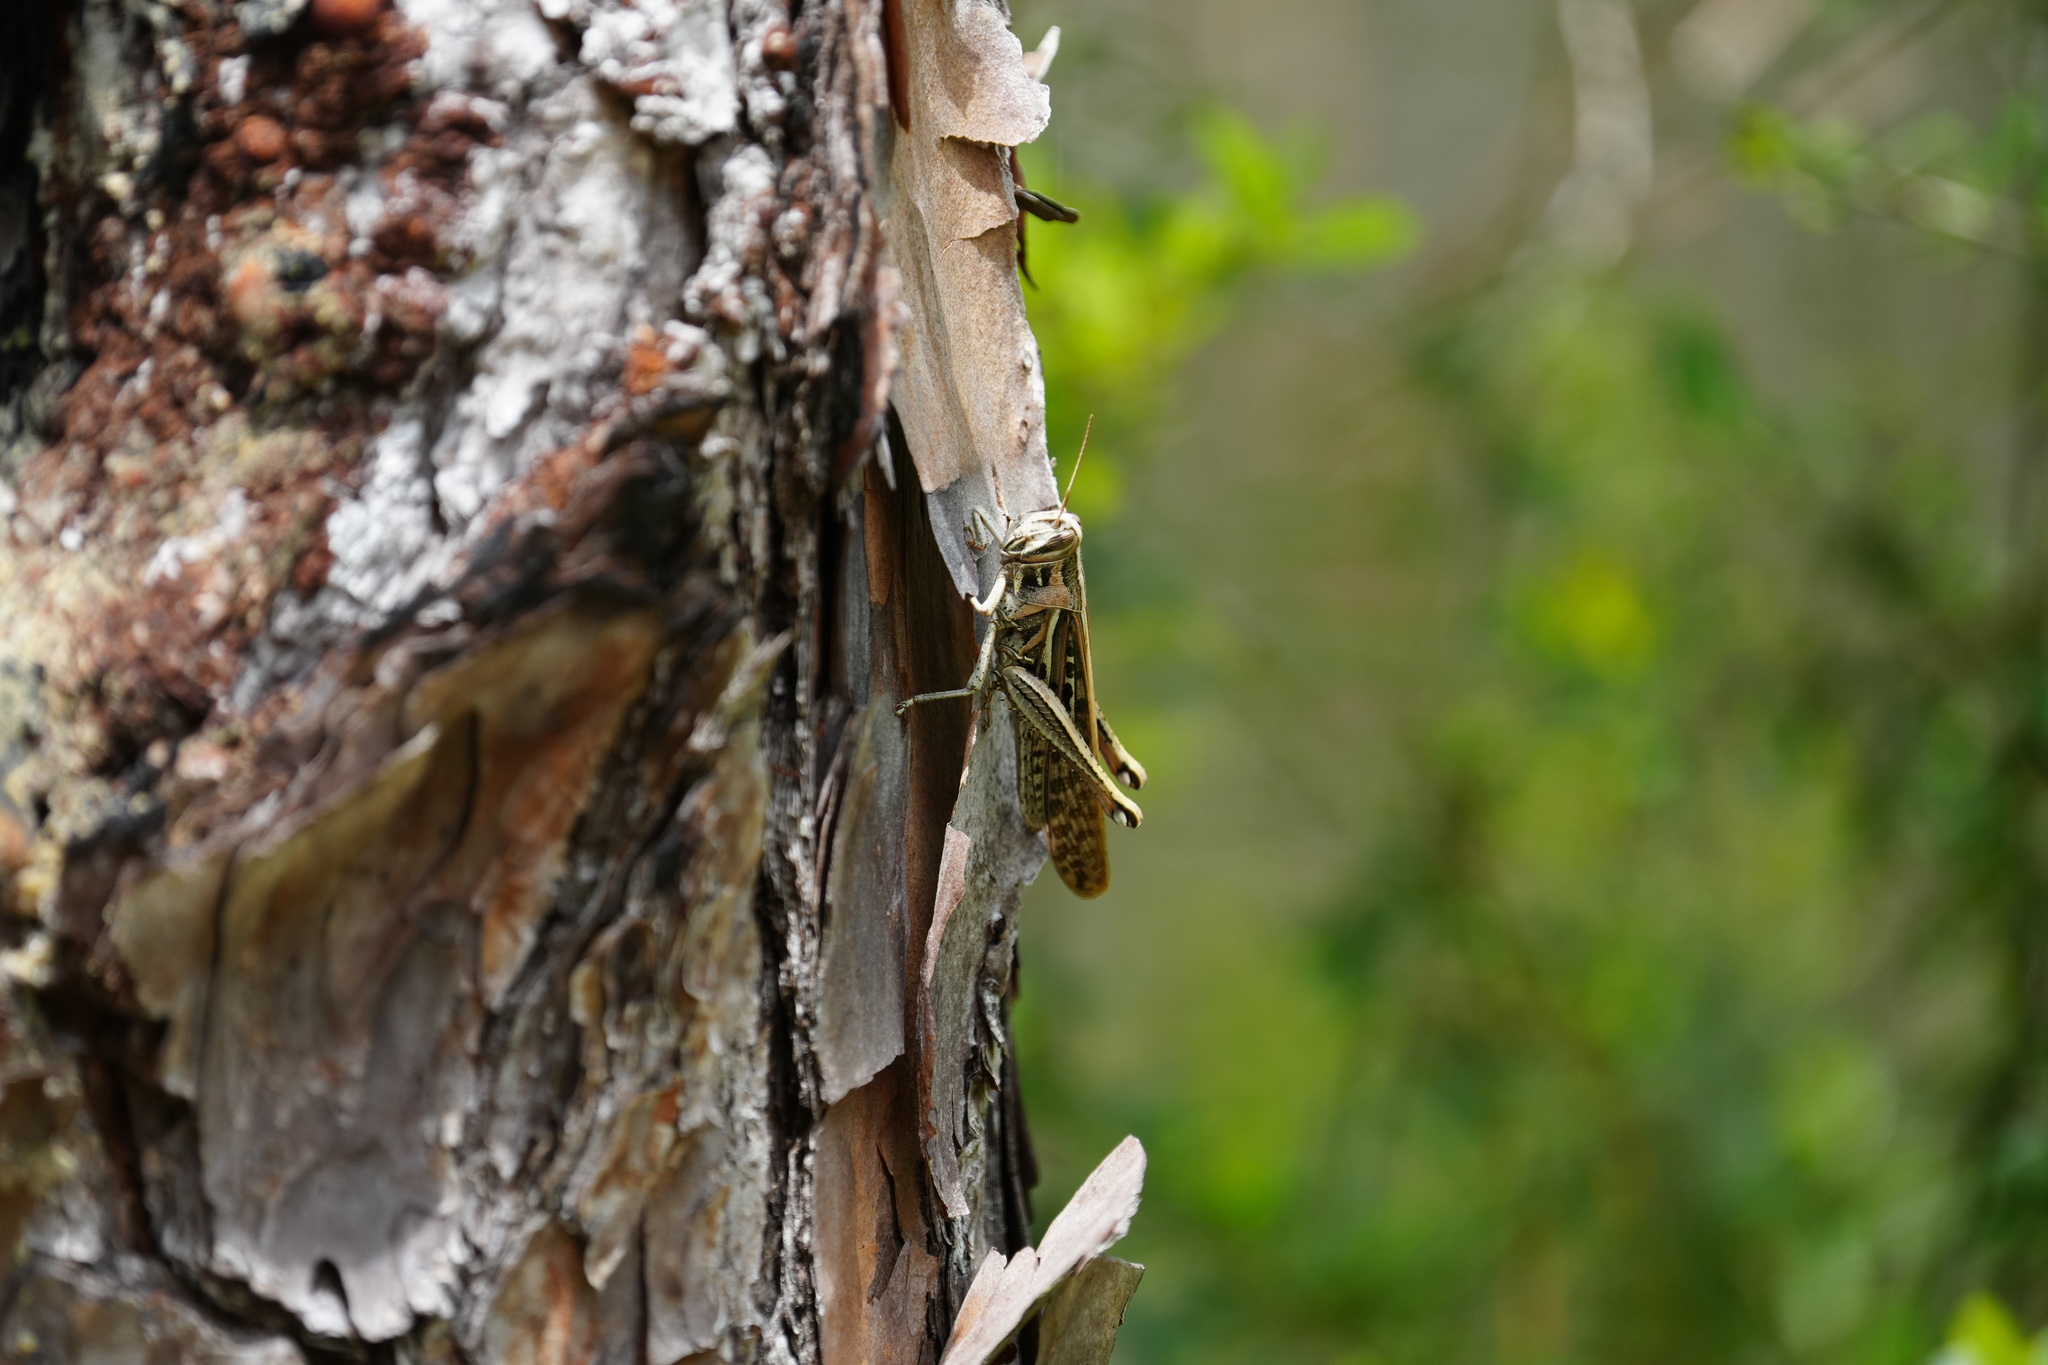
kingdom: Animalia
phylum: Arthropoda
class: Insecta
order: Orthoptera
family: Acrididae
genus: Schistocerca
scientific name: Schistocerca americana
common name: American bird locust
